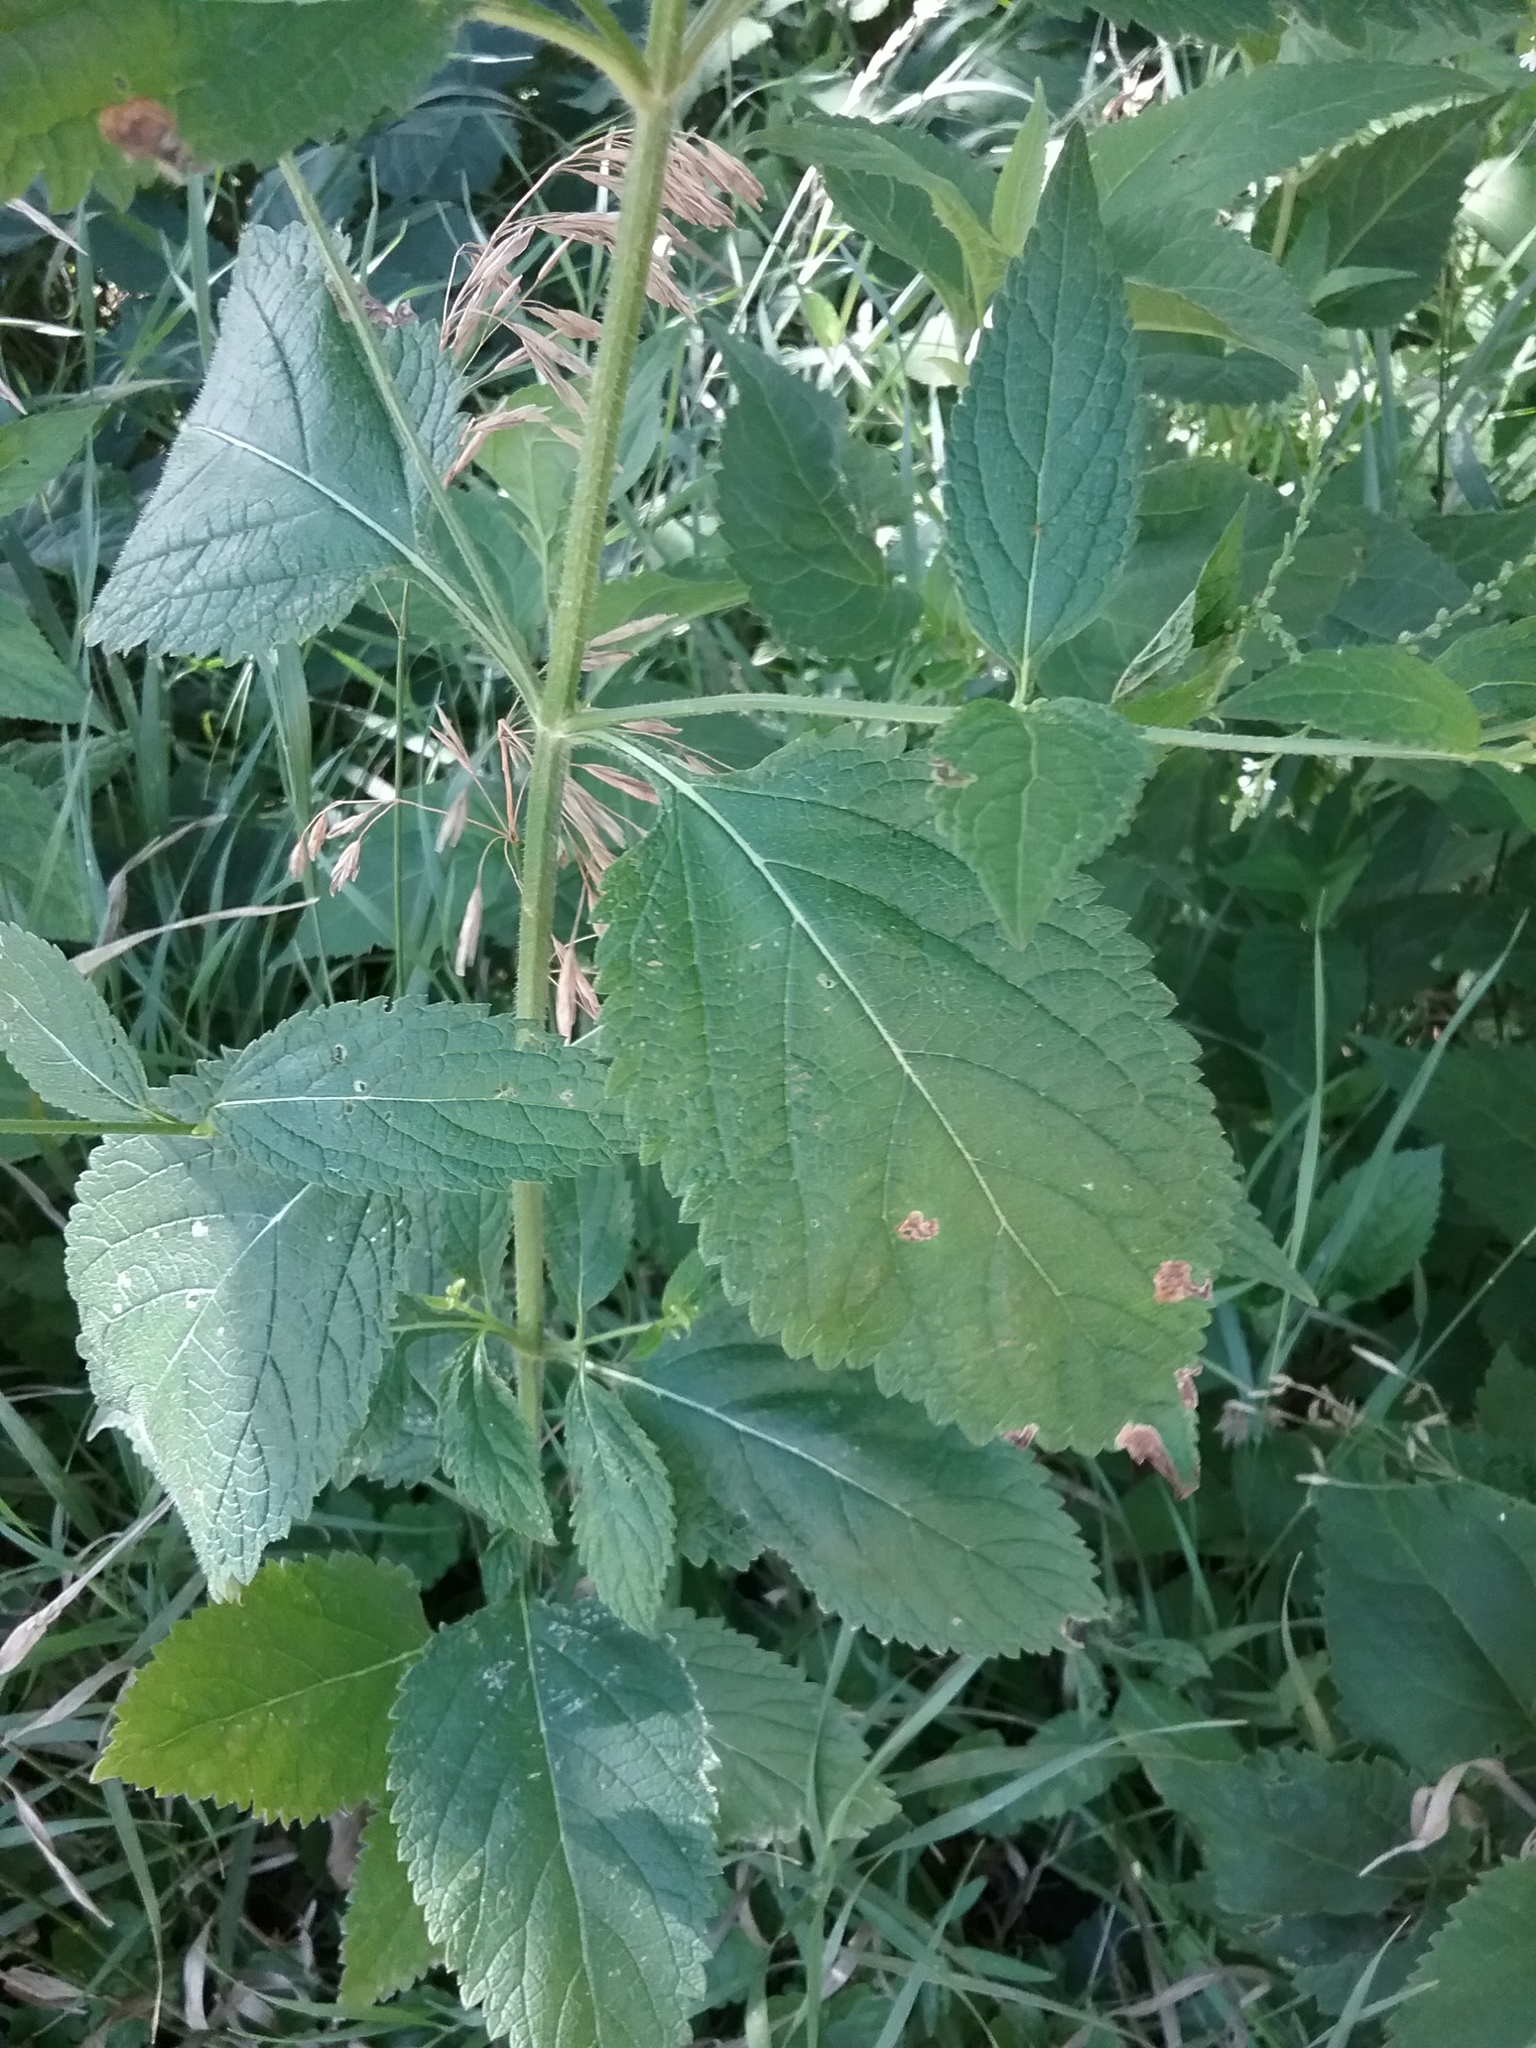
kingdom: Plantae
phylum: Tracheophyta
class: Magnoliopsida
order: Lamiales
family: Verbenaceae
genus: Verbena
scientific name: Verbena urticifolia
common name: Nettle-leaved vervain
